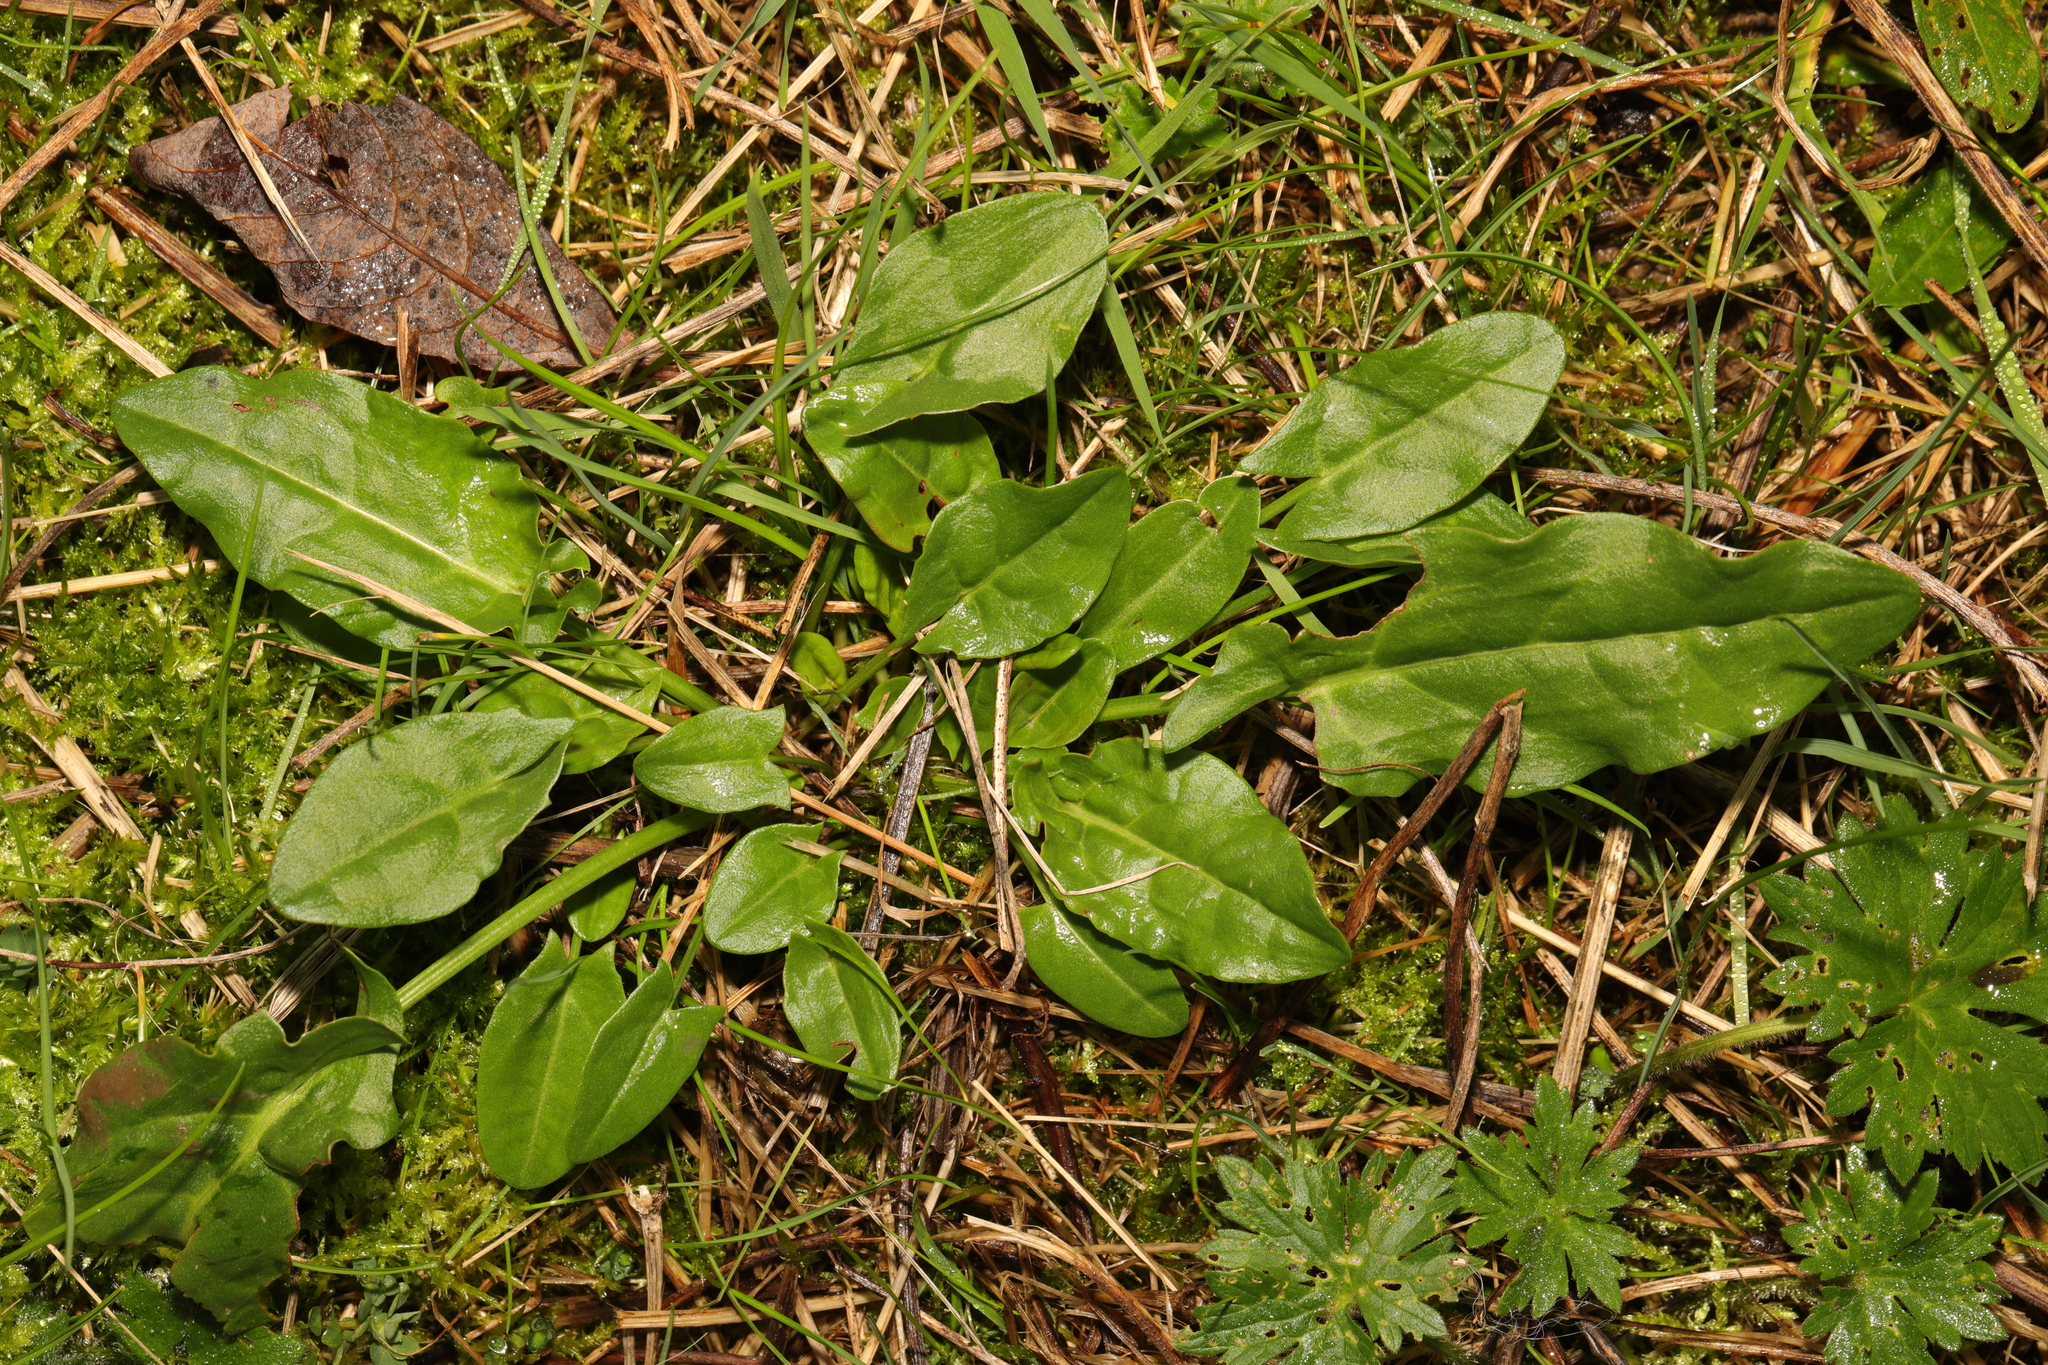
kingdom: Plantae
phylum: Tracheophyta
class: Magnoliopsida
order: Caryophyllales
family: Polygonaceae
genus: Rumex
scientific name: Rumex acetosa
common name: Garden sorrel
